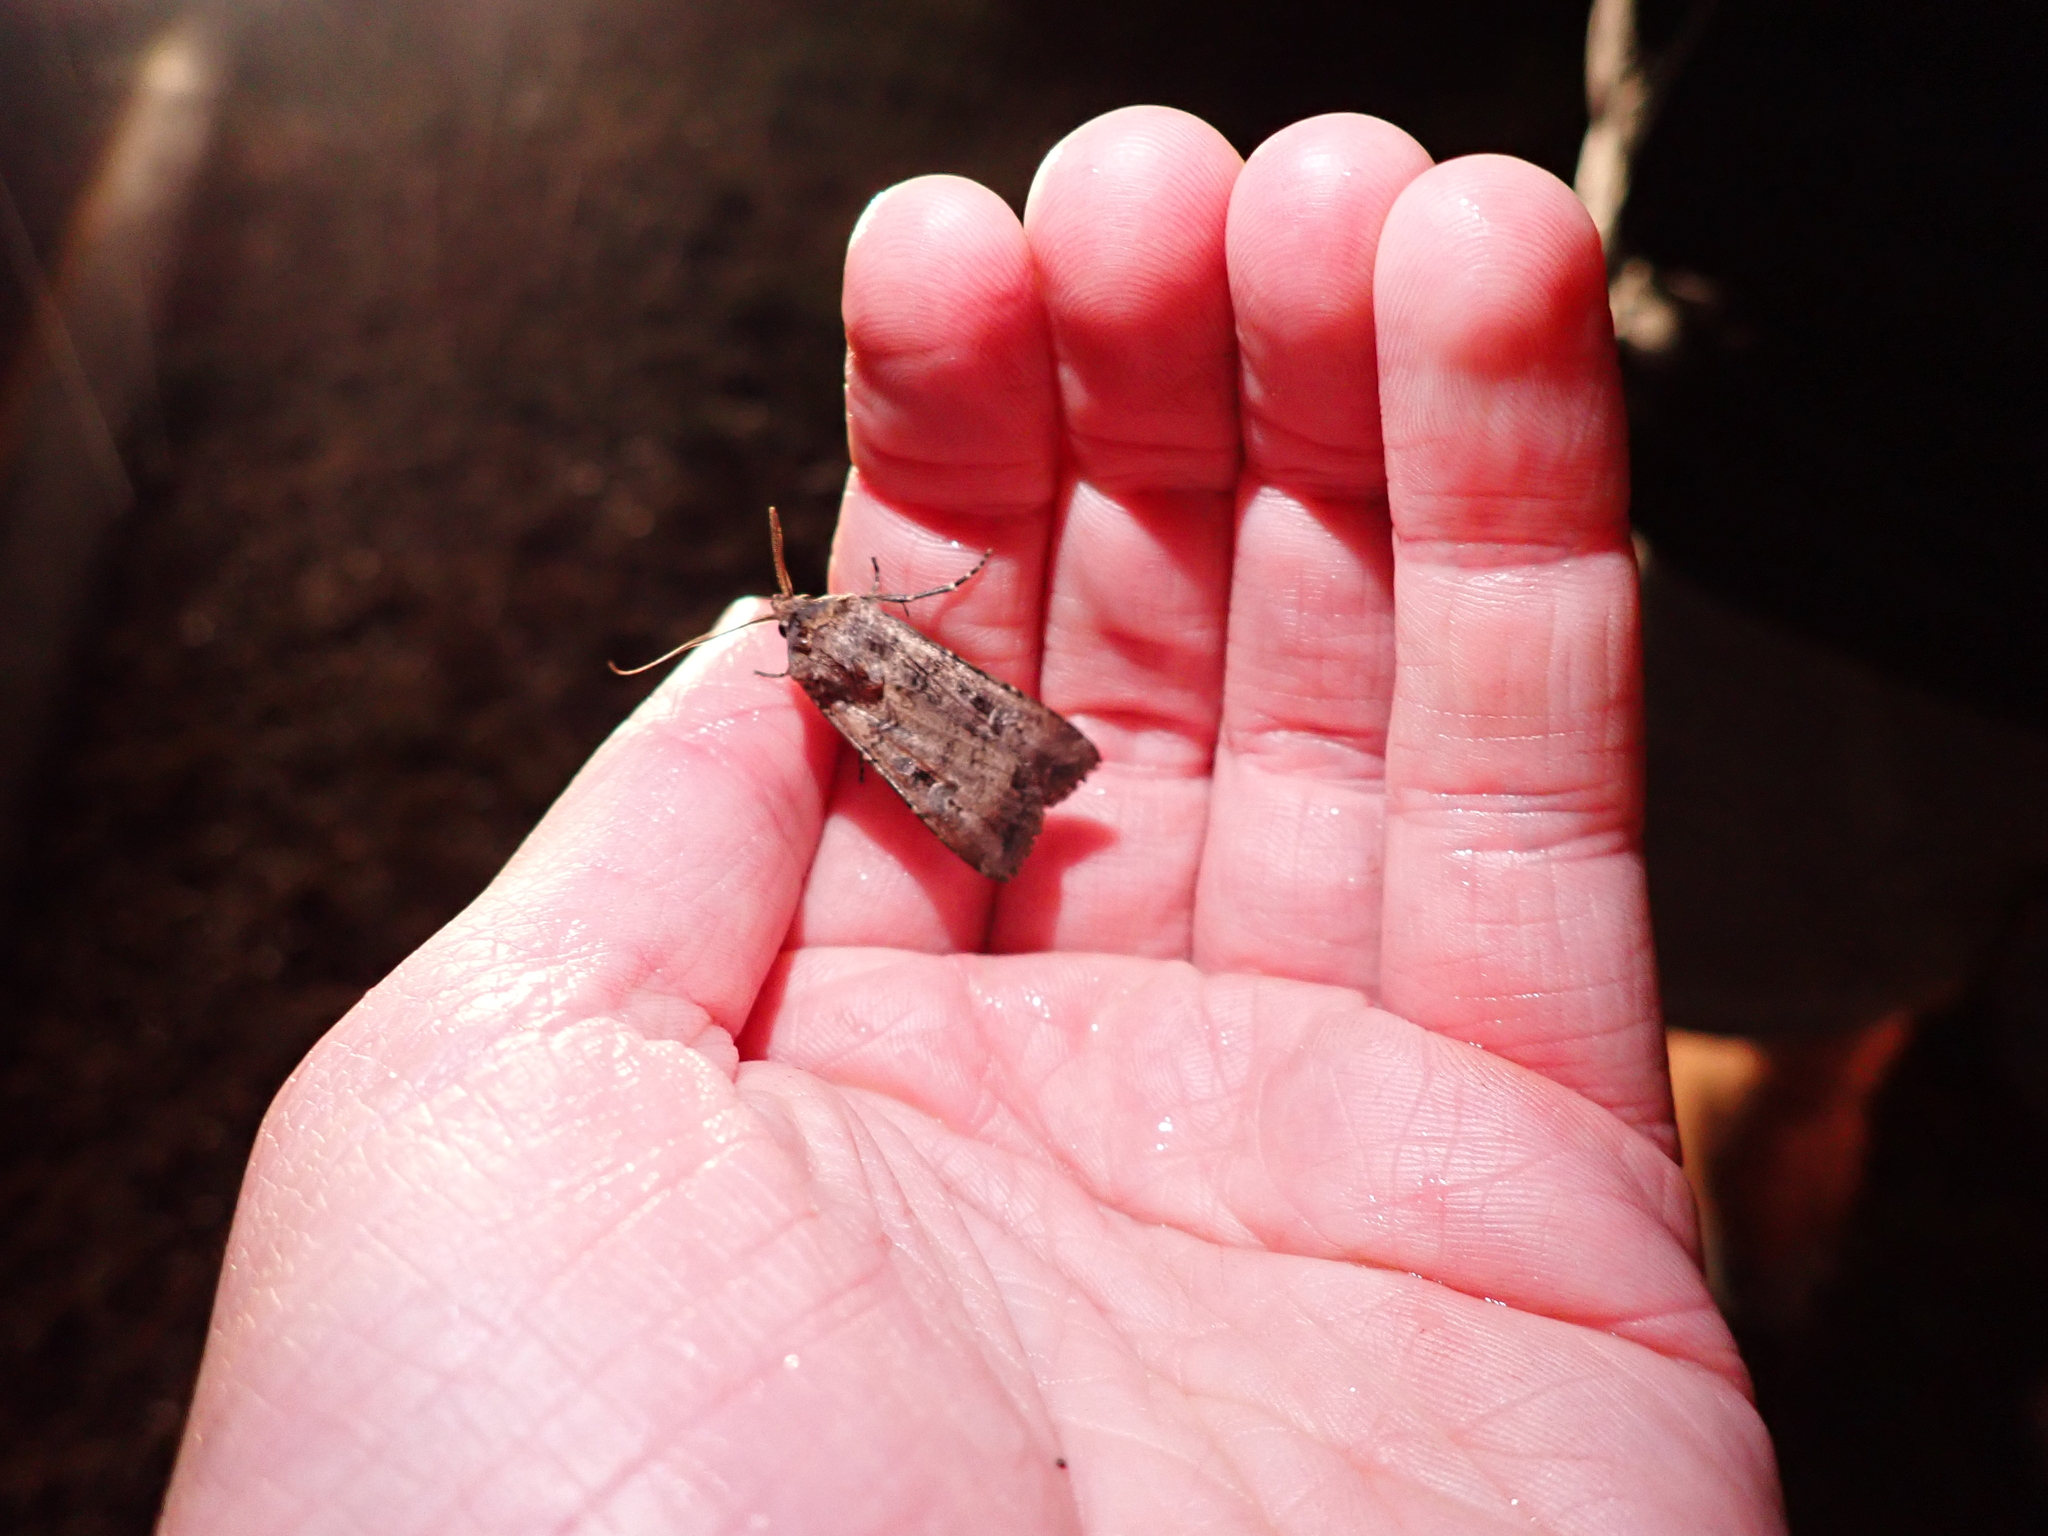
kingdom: Animalia
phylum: Arthropoda
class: Insecta
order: Lepidoptera
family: Noctuidae
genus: Agrotis
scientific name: Agrotis infusa
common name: Bogong moth
